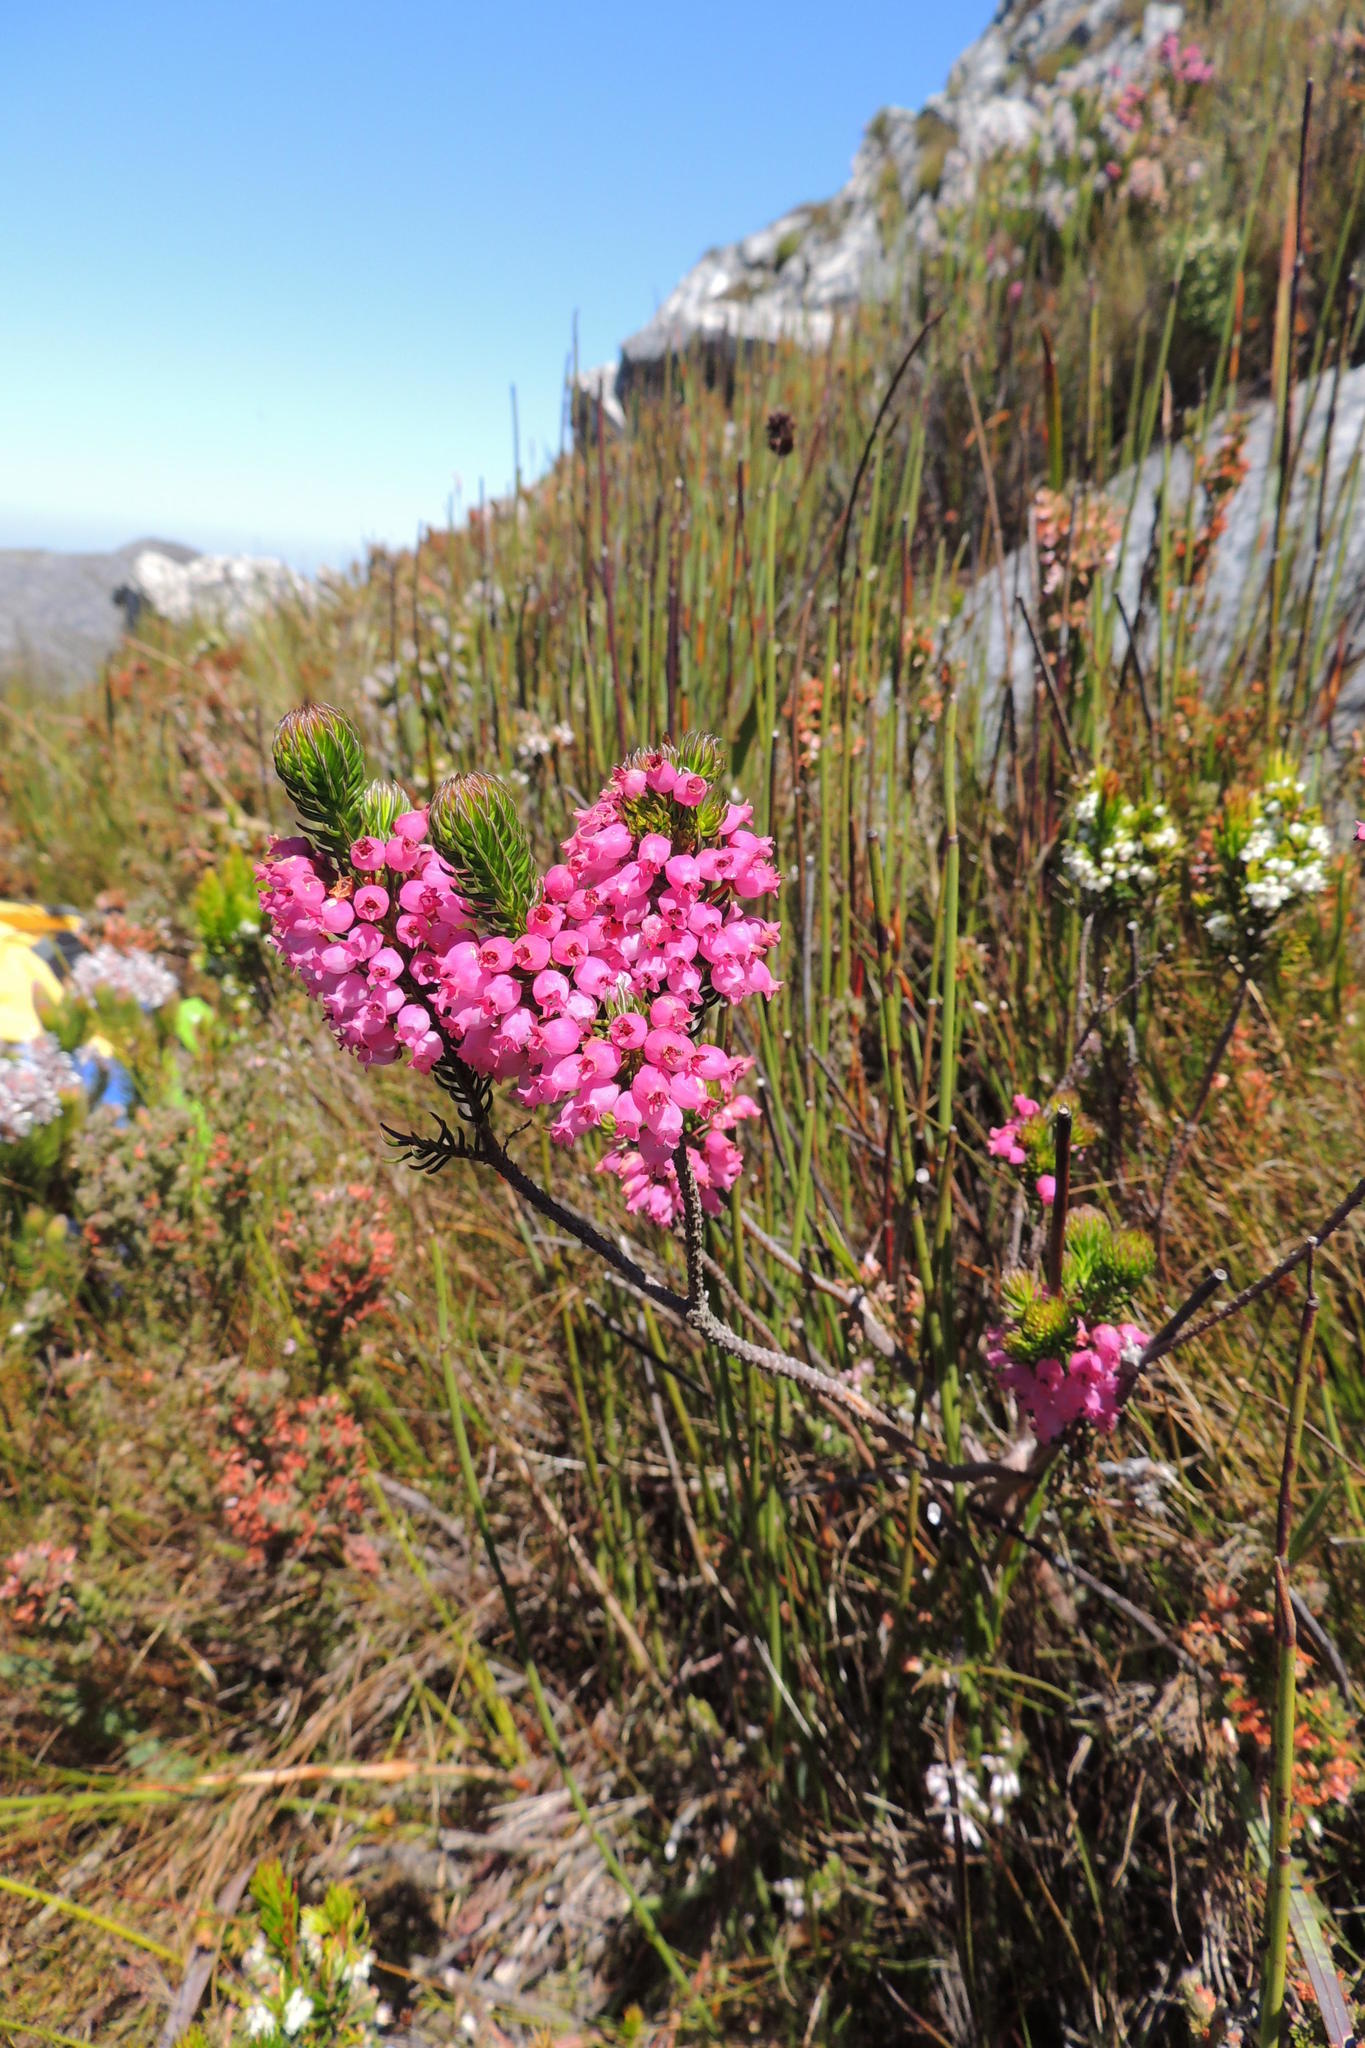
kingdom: Plantae
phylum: Tracheophyta
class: Magnoliopsida
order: Ericales
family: Ericaceae
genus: Erica
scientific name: Erica regerminans
